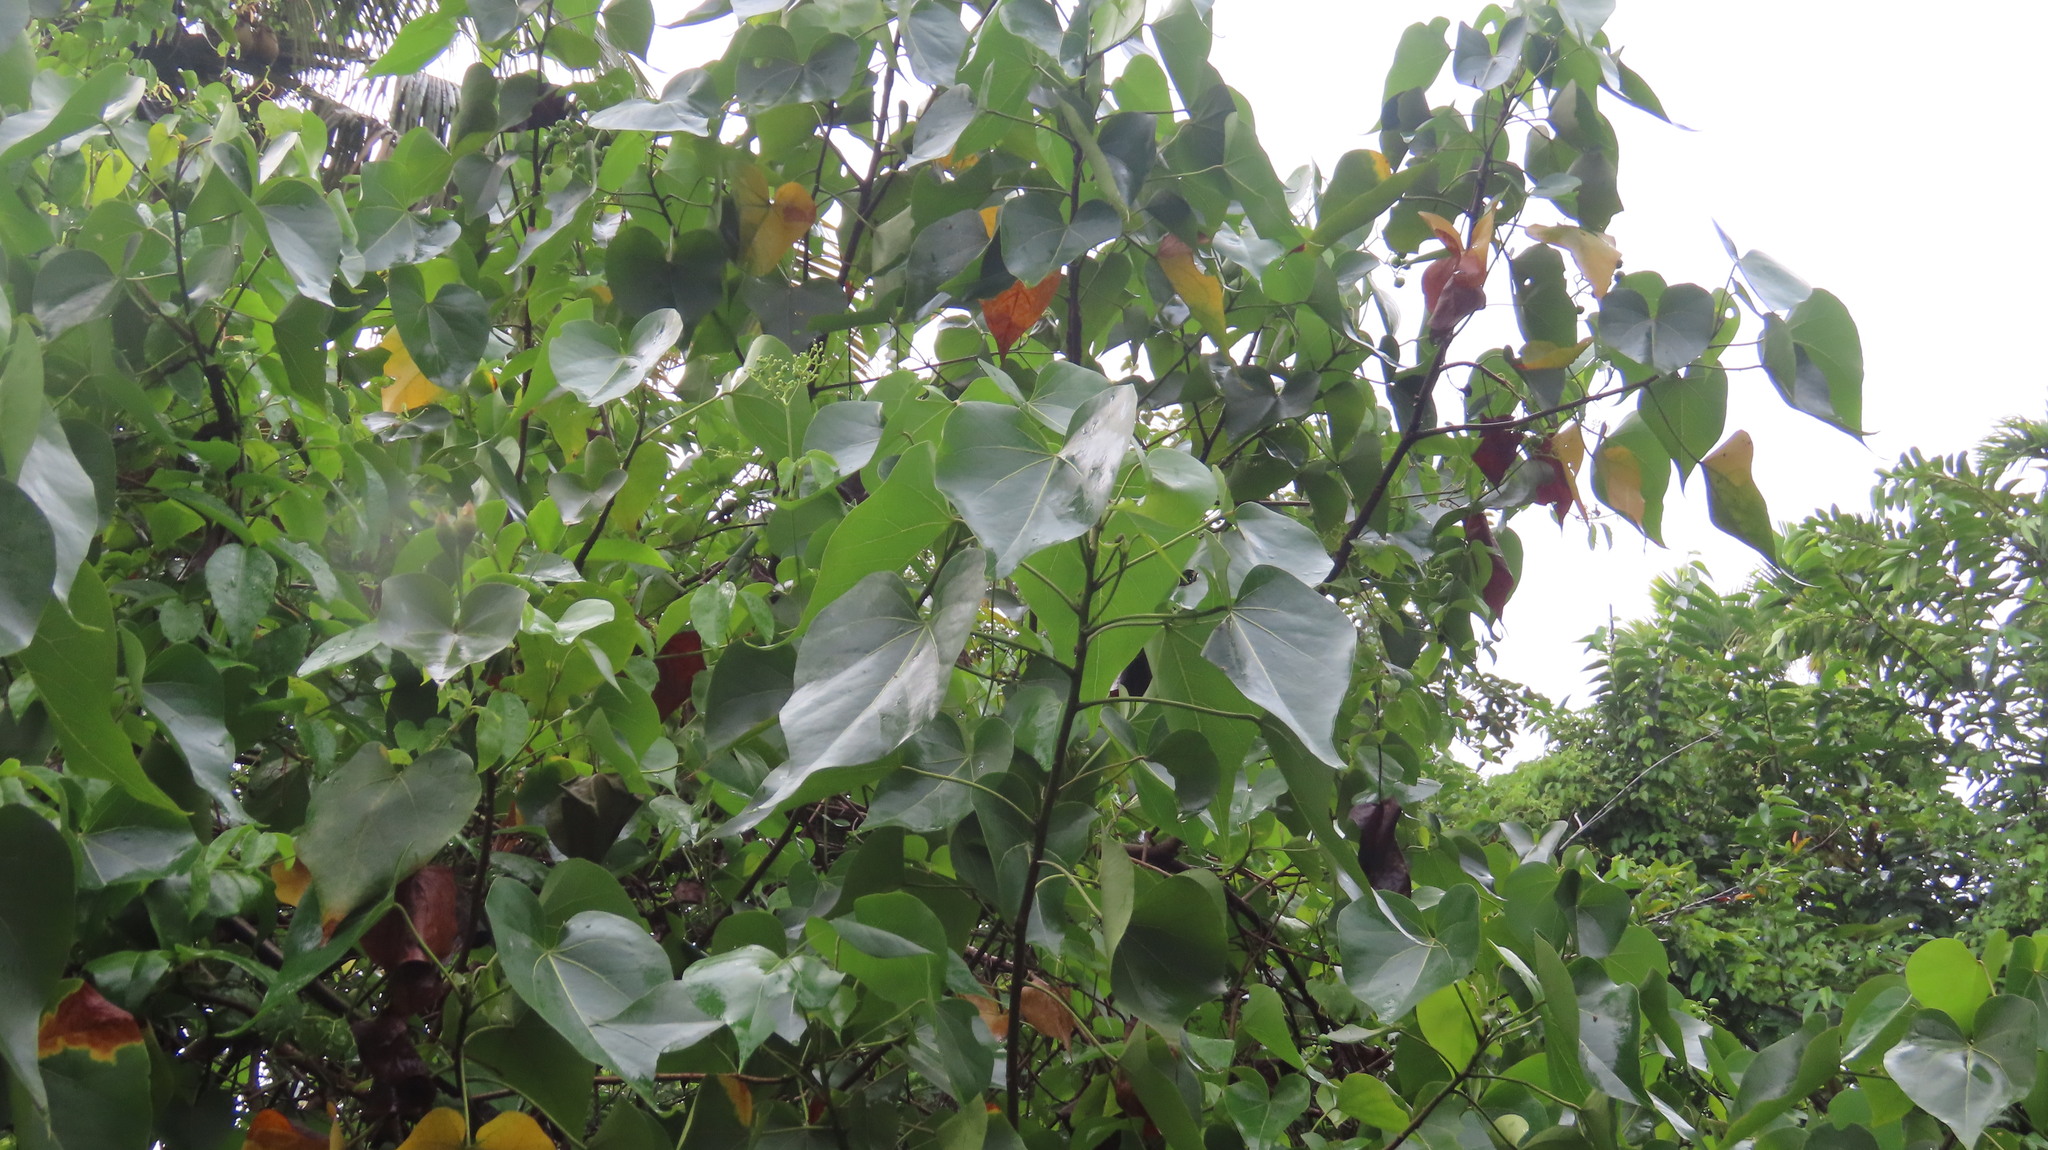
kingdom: Plantae
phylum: Tracheophyta
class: Magnoliopsida
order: Malvales
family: Malvaceae
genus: Thespesia
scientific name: Thespesia populnea
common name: Seaside mahoe
